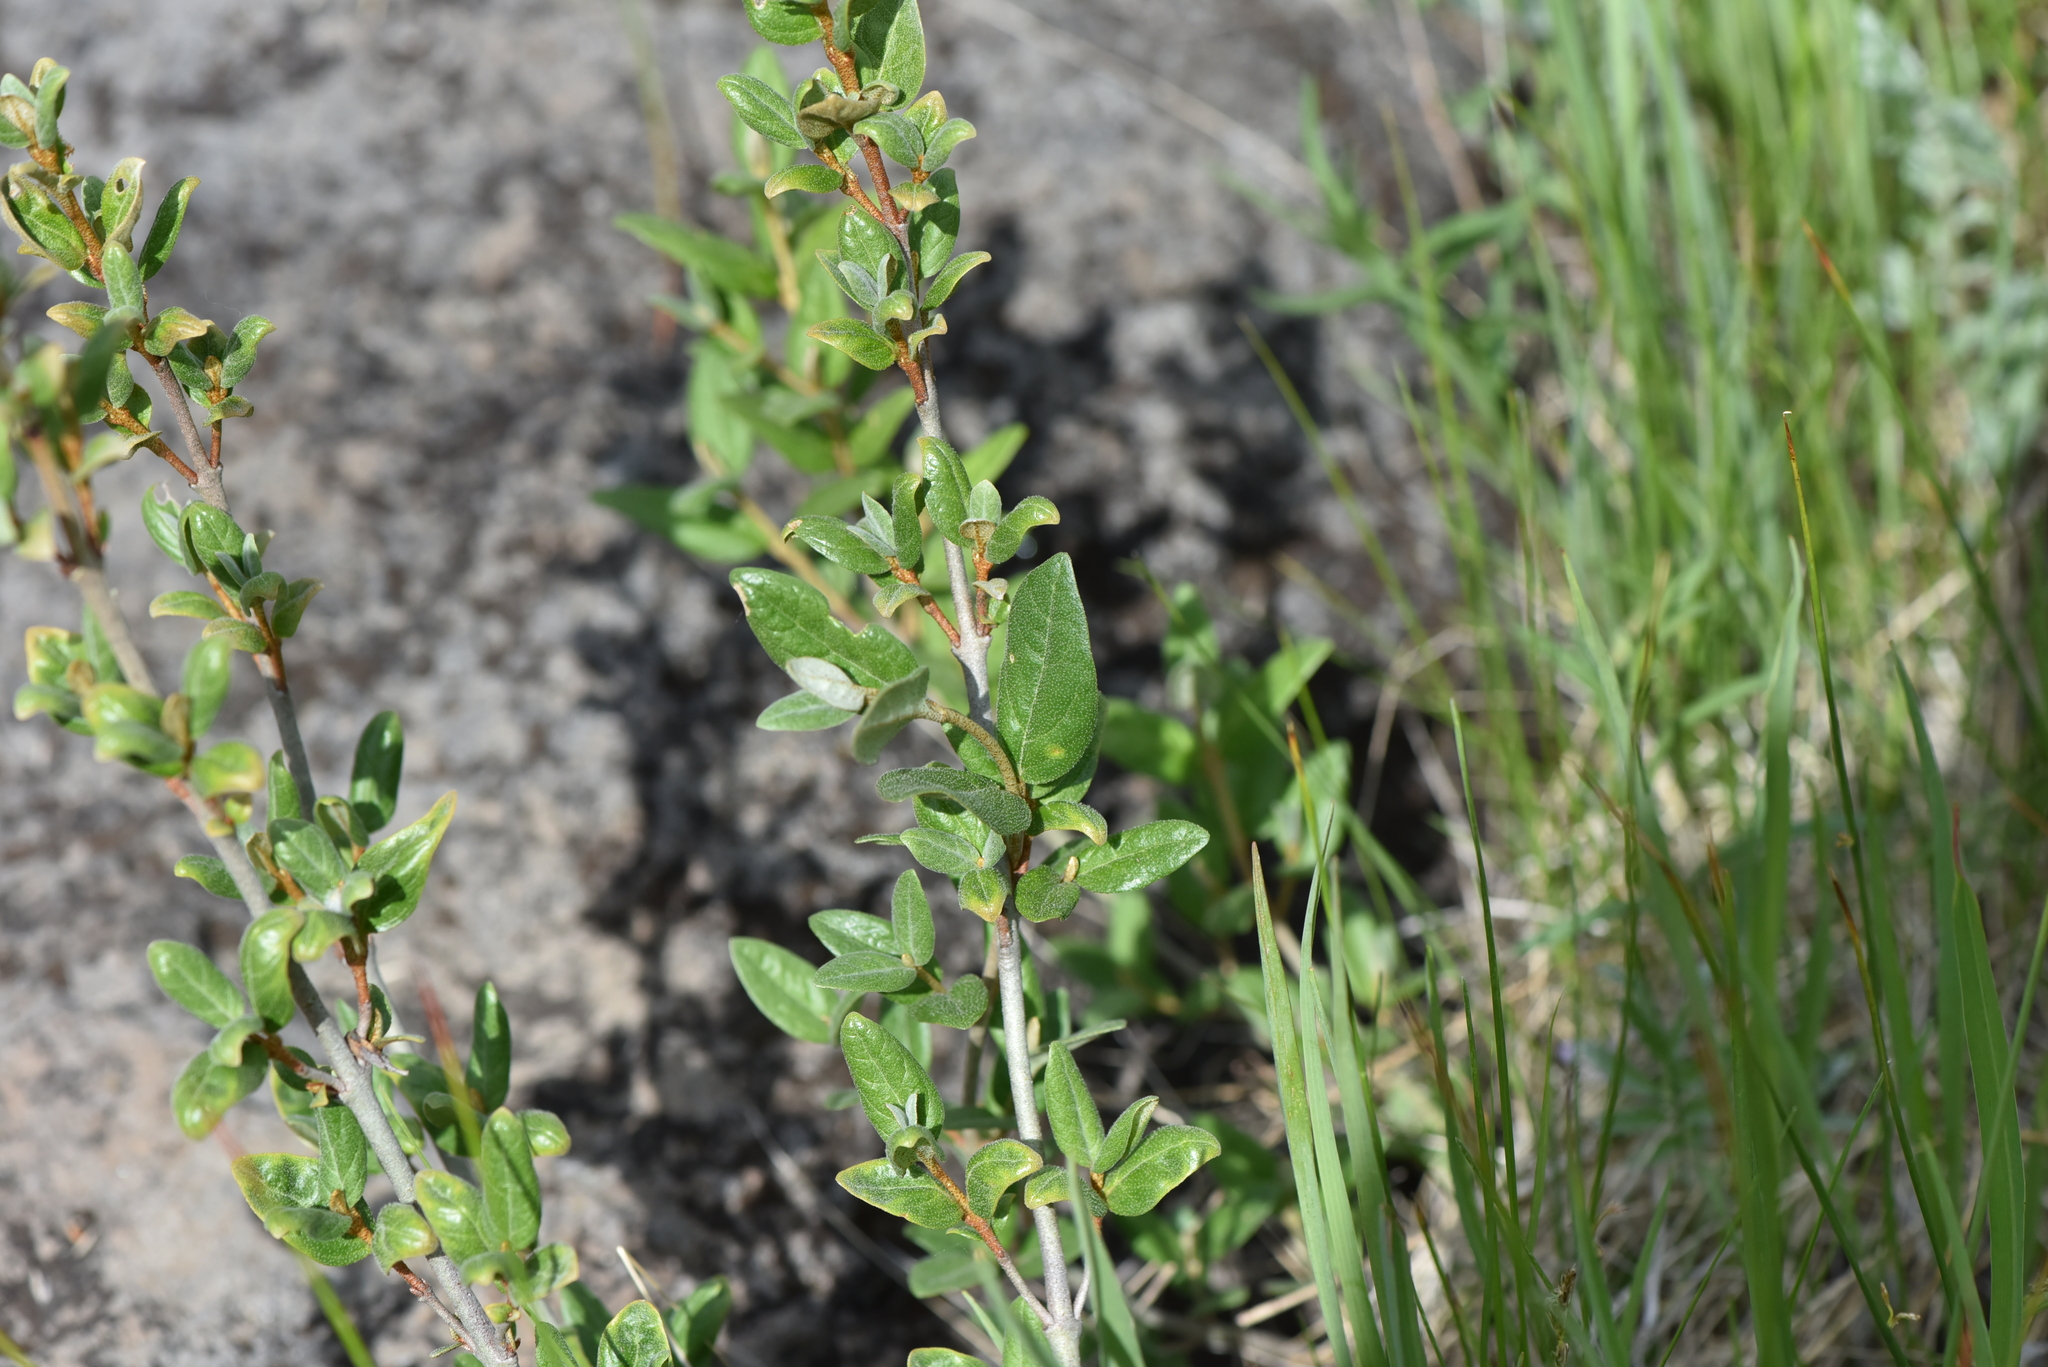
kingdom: Plantae
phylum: Tracheophyta
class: Magnoliopsida
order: Rosales
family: Elaeagnaceae
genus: Shepherdia
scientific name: Shepherdia canadensis
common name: Soapberry
